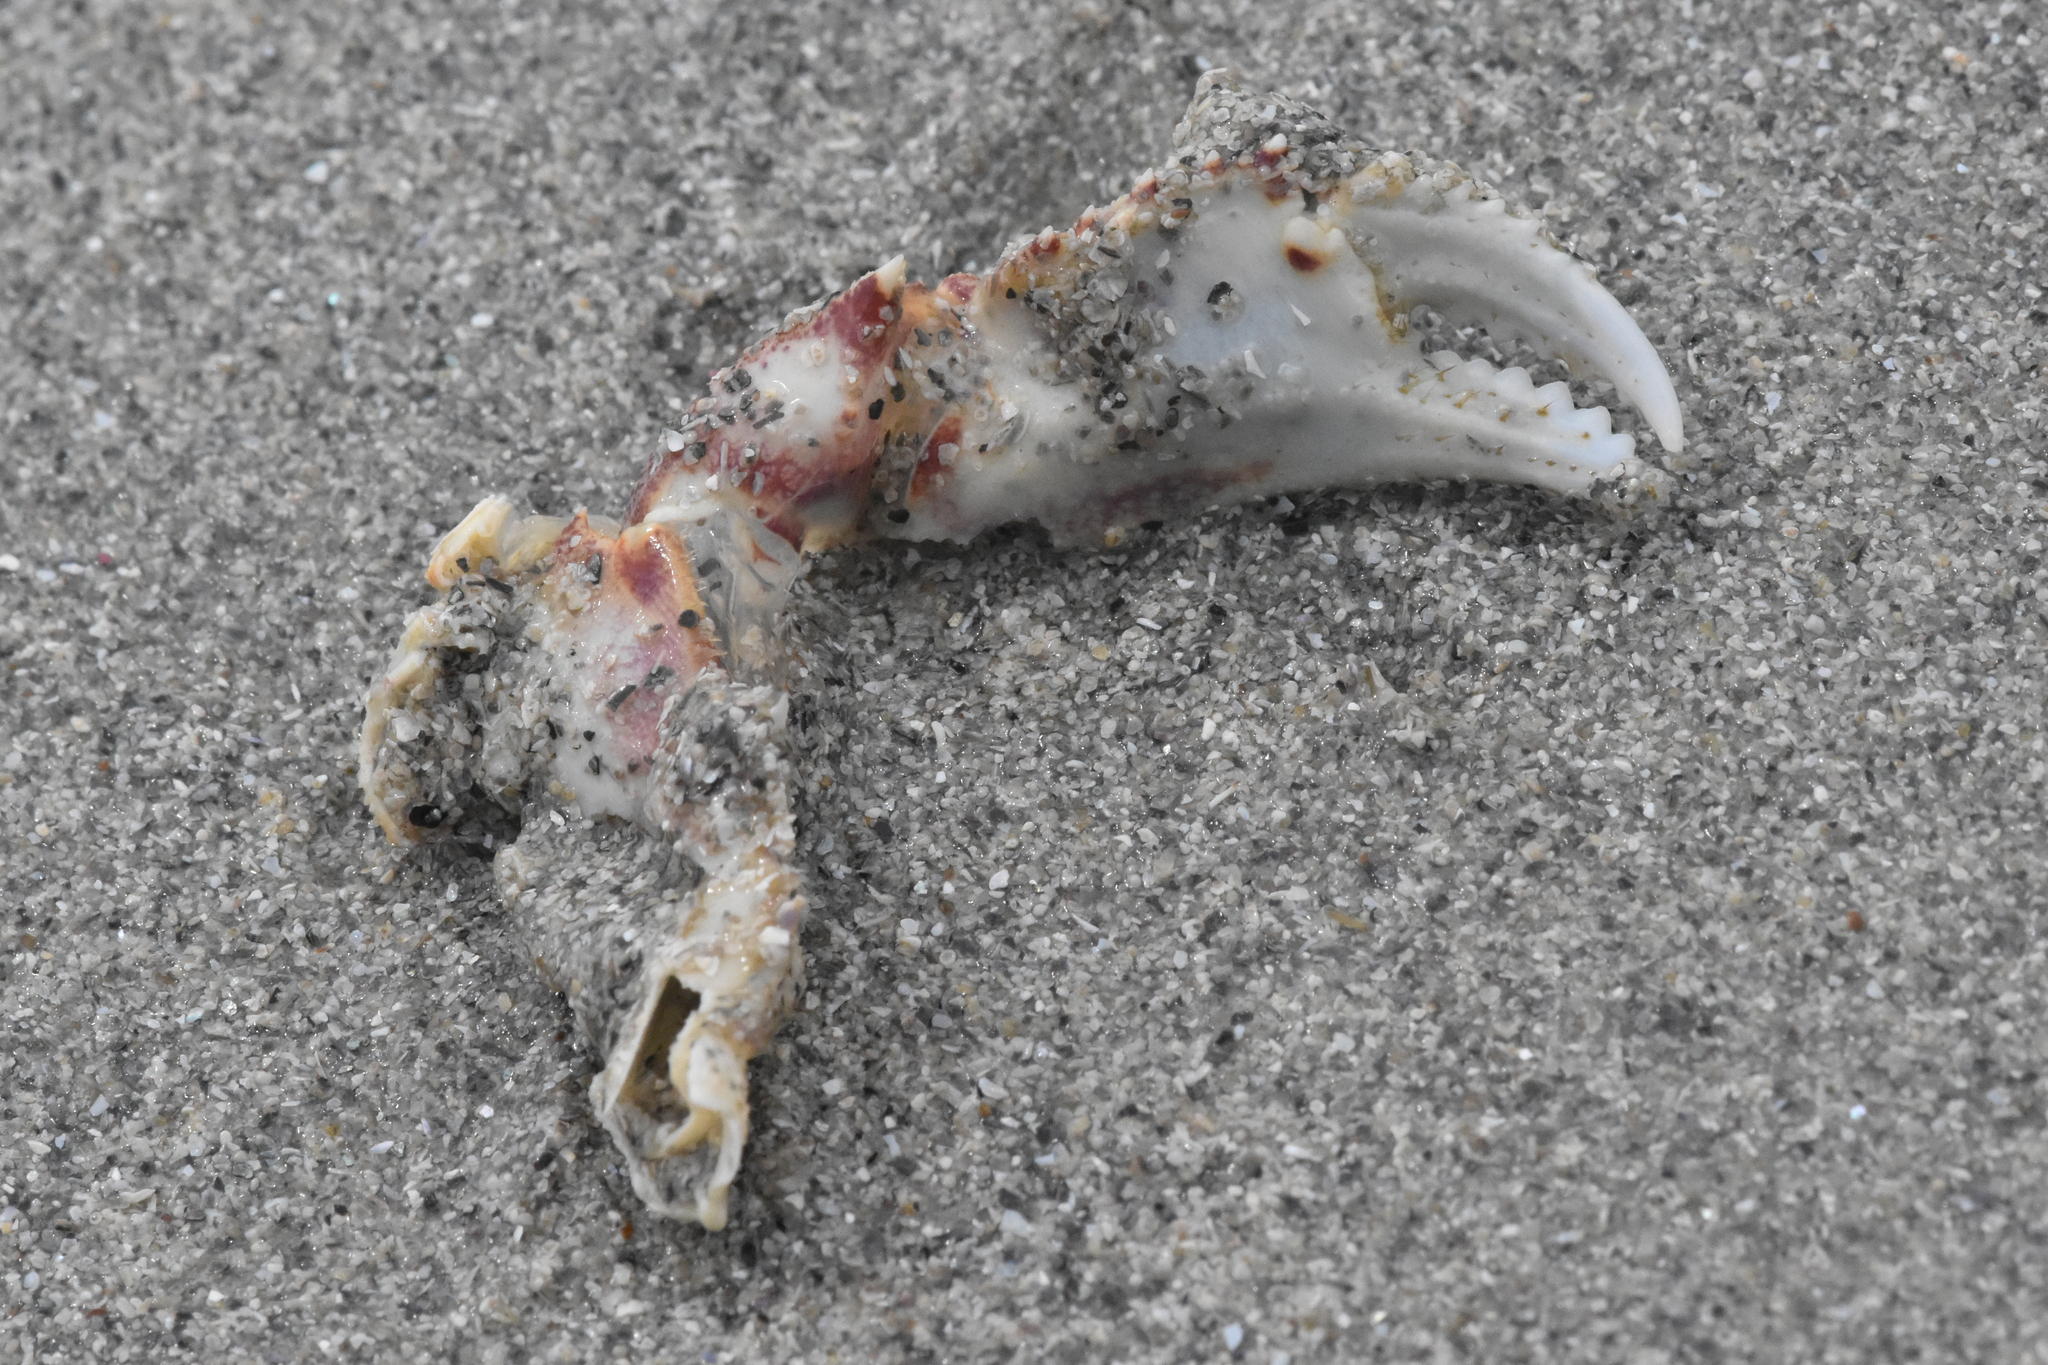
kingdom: Animalia
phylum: Arthropoda
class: Malacostraca
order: Decapoda
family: Cancridae
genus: Metacarcinus
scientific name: Metacarcinus magister
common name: Californian crab
